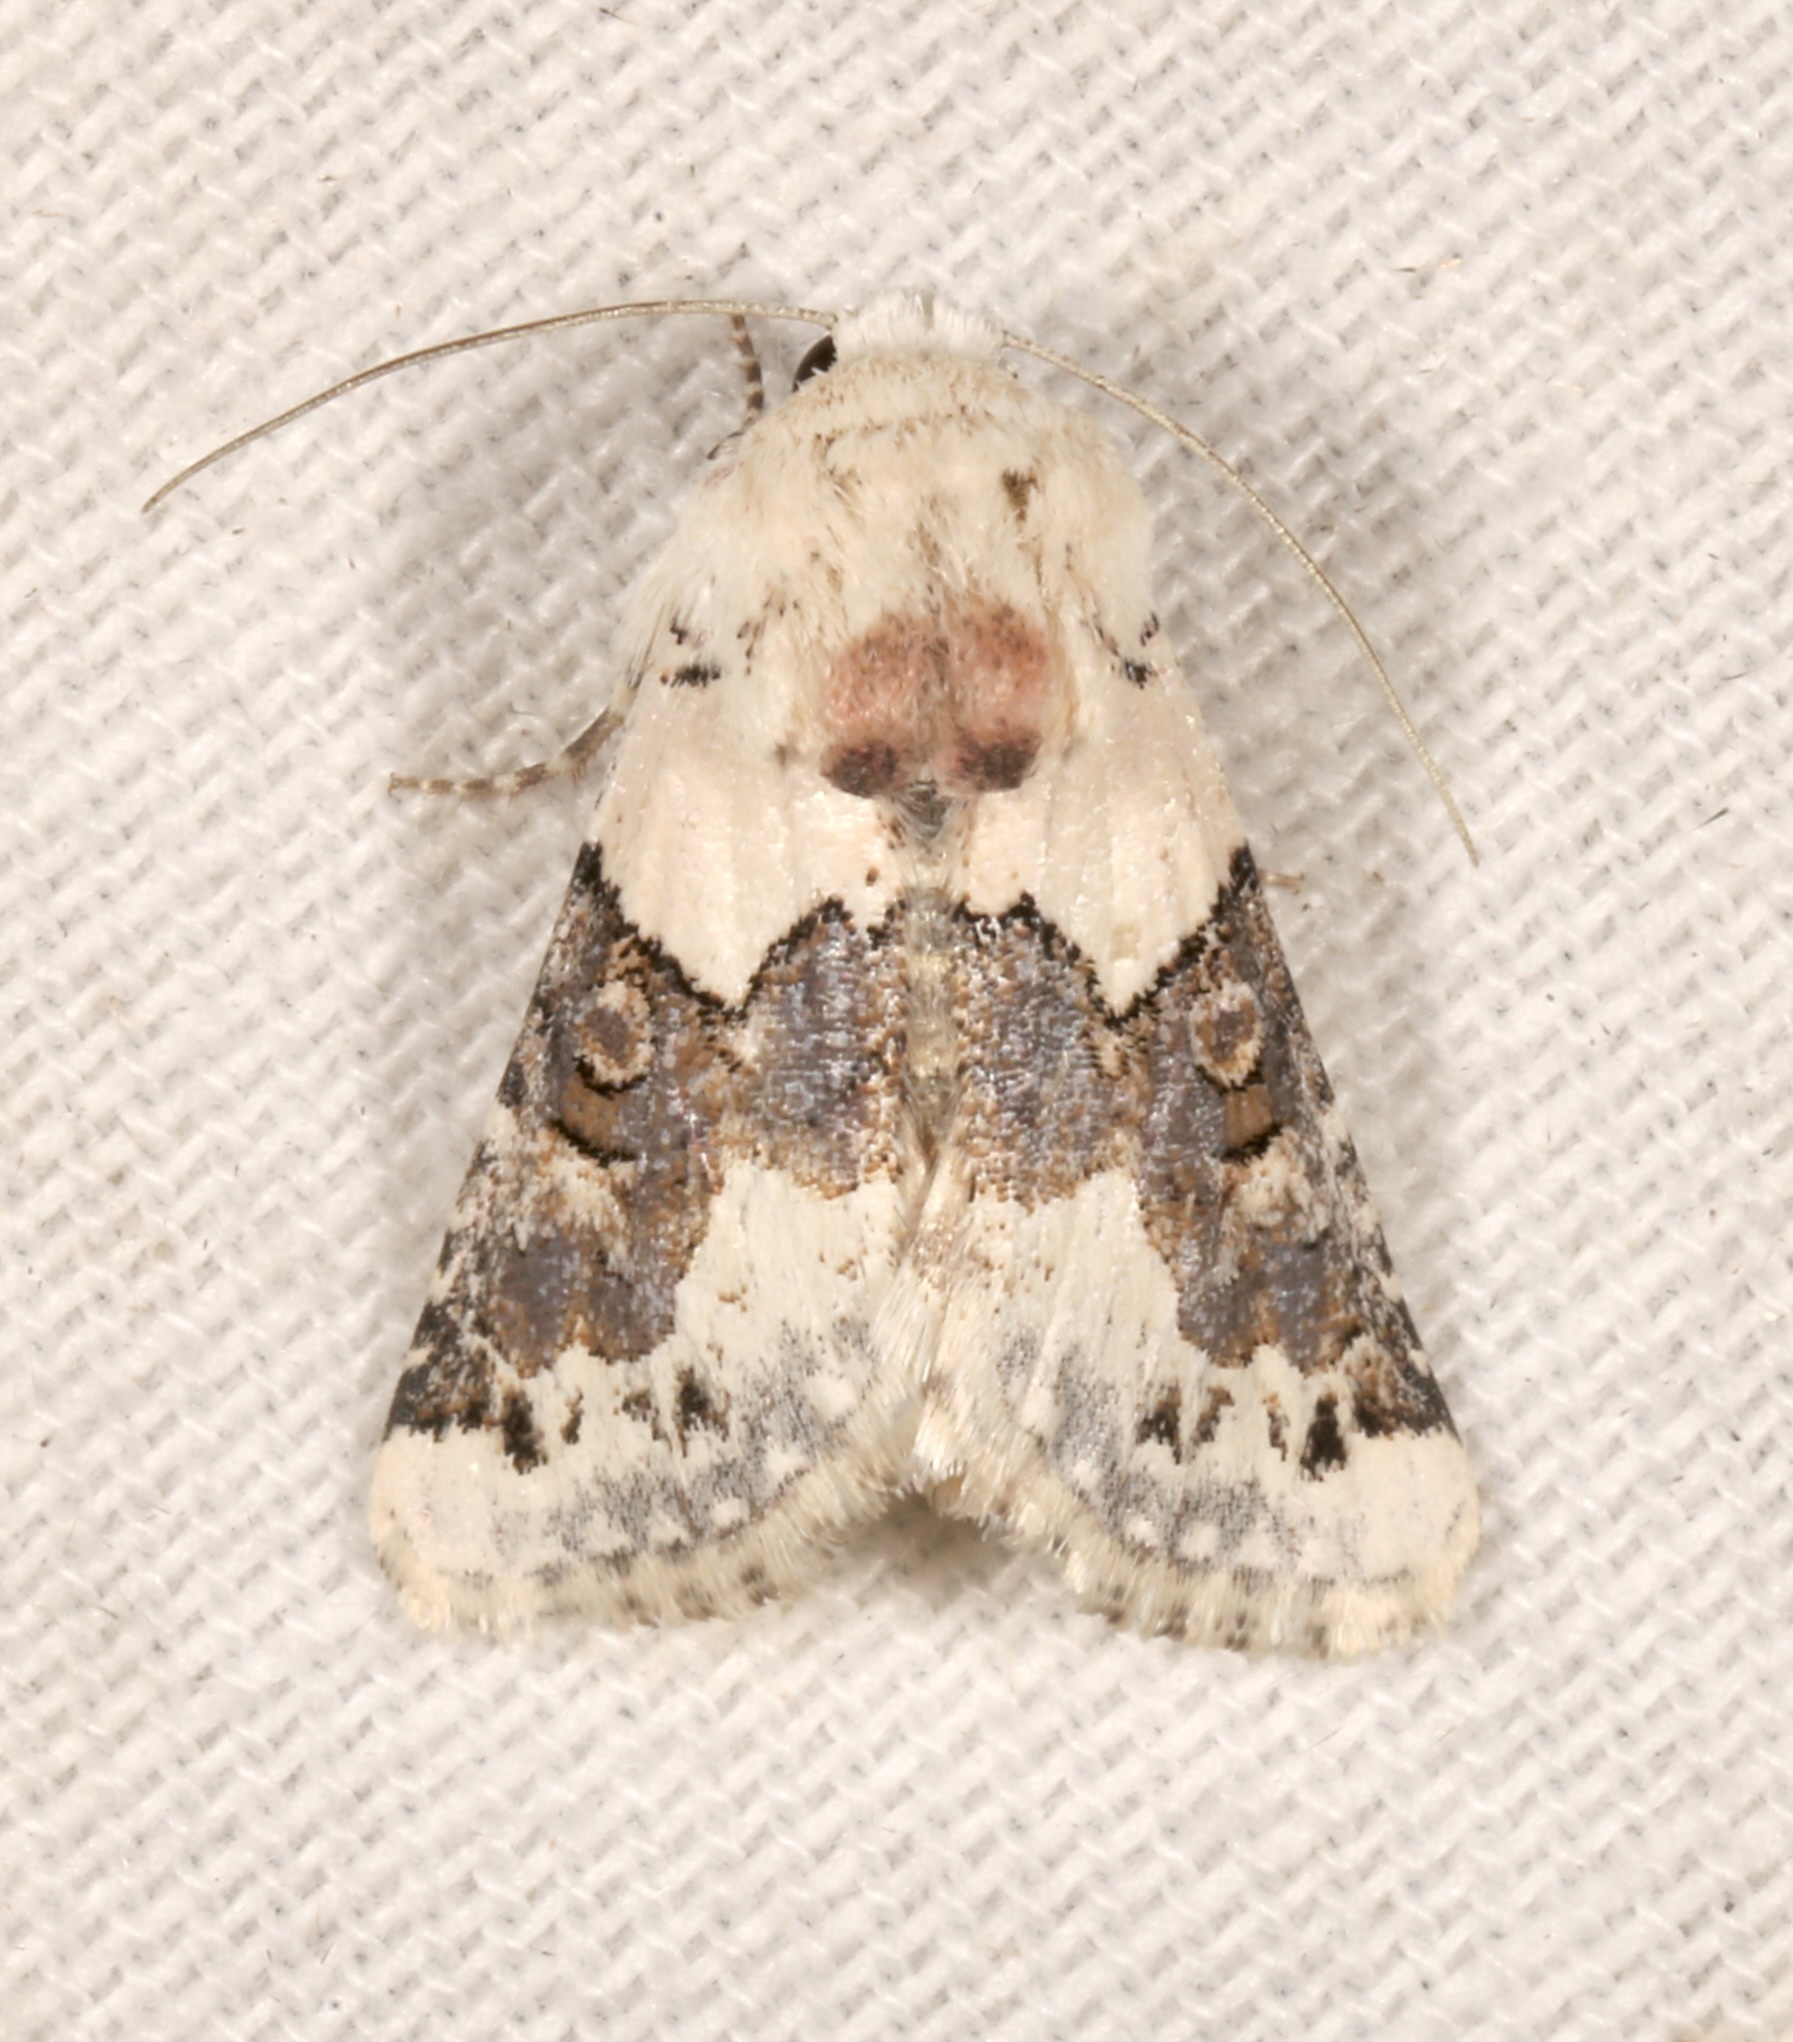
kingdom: Animalia
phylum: Arthropoda
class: Insecta
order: Lepidoptera
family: Noctuidae
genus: Triocnemis
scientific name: Triocnemis saporis
